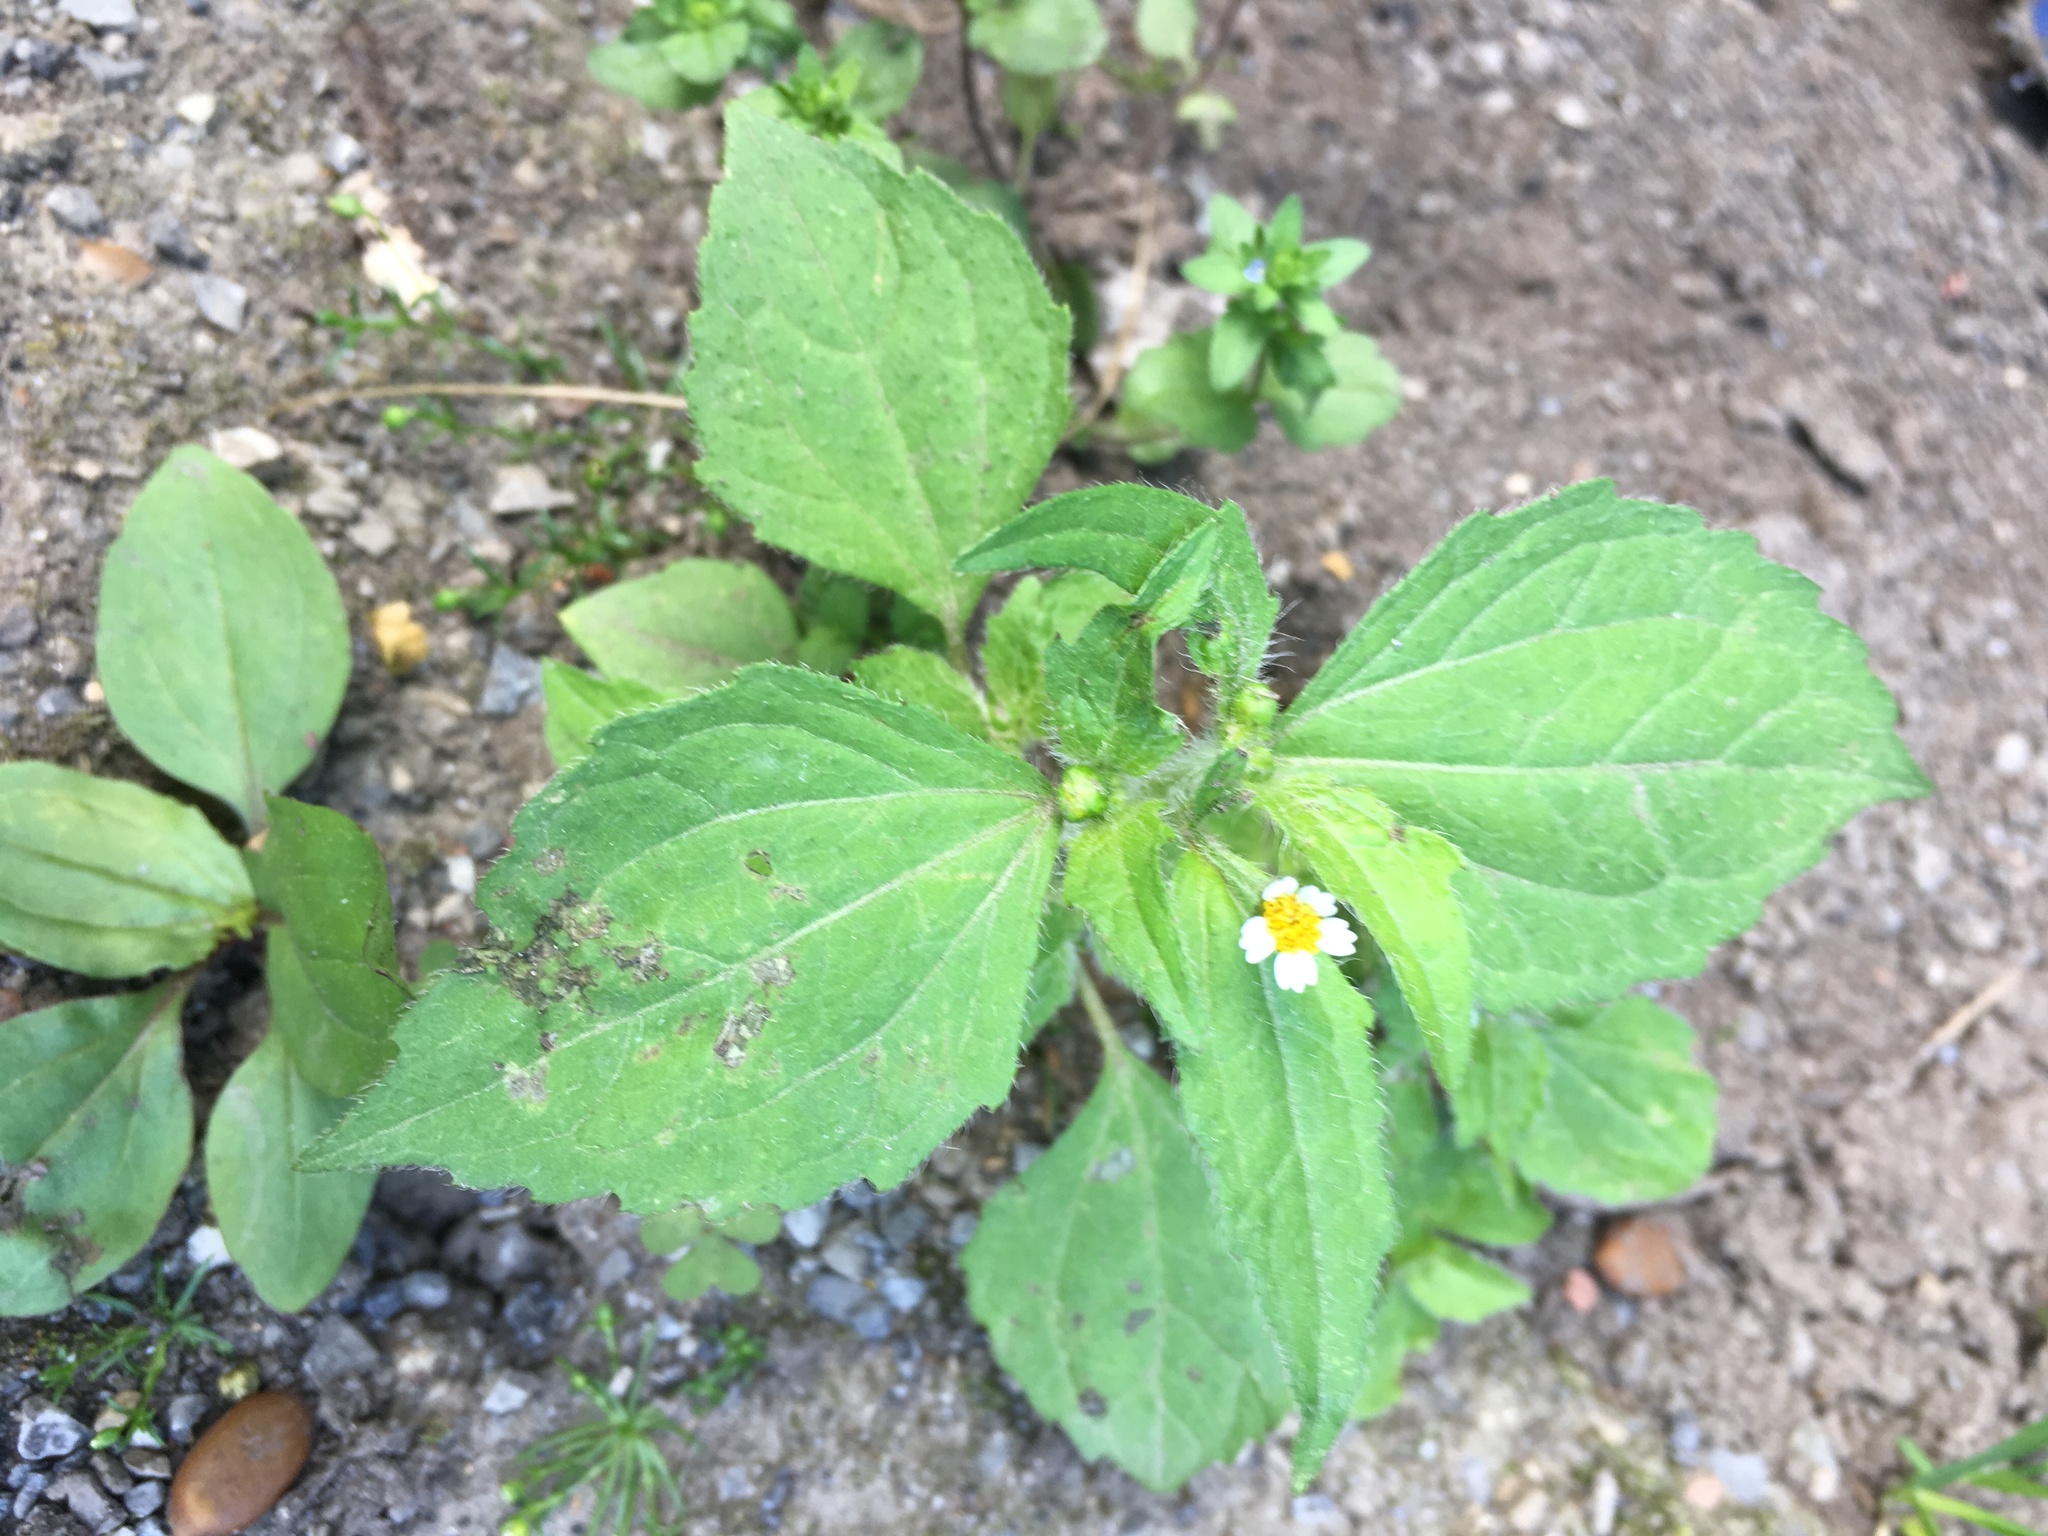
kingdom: Plantae
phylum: Tracheophyta
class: Magnoliopsida
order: Asterales
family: Asteraceae
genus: Galinsoga
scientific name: Galinsoga quadriradiata
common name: Shaggy soldier
